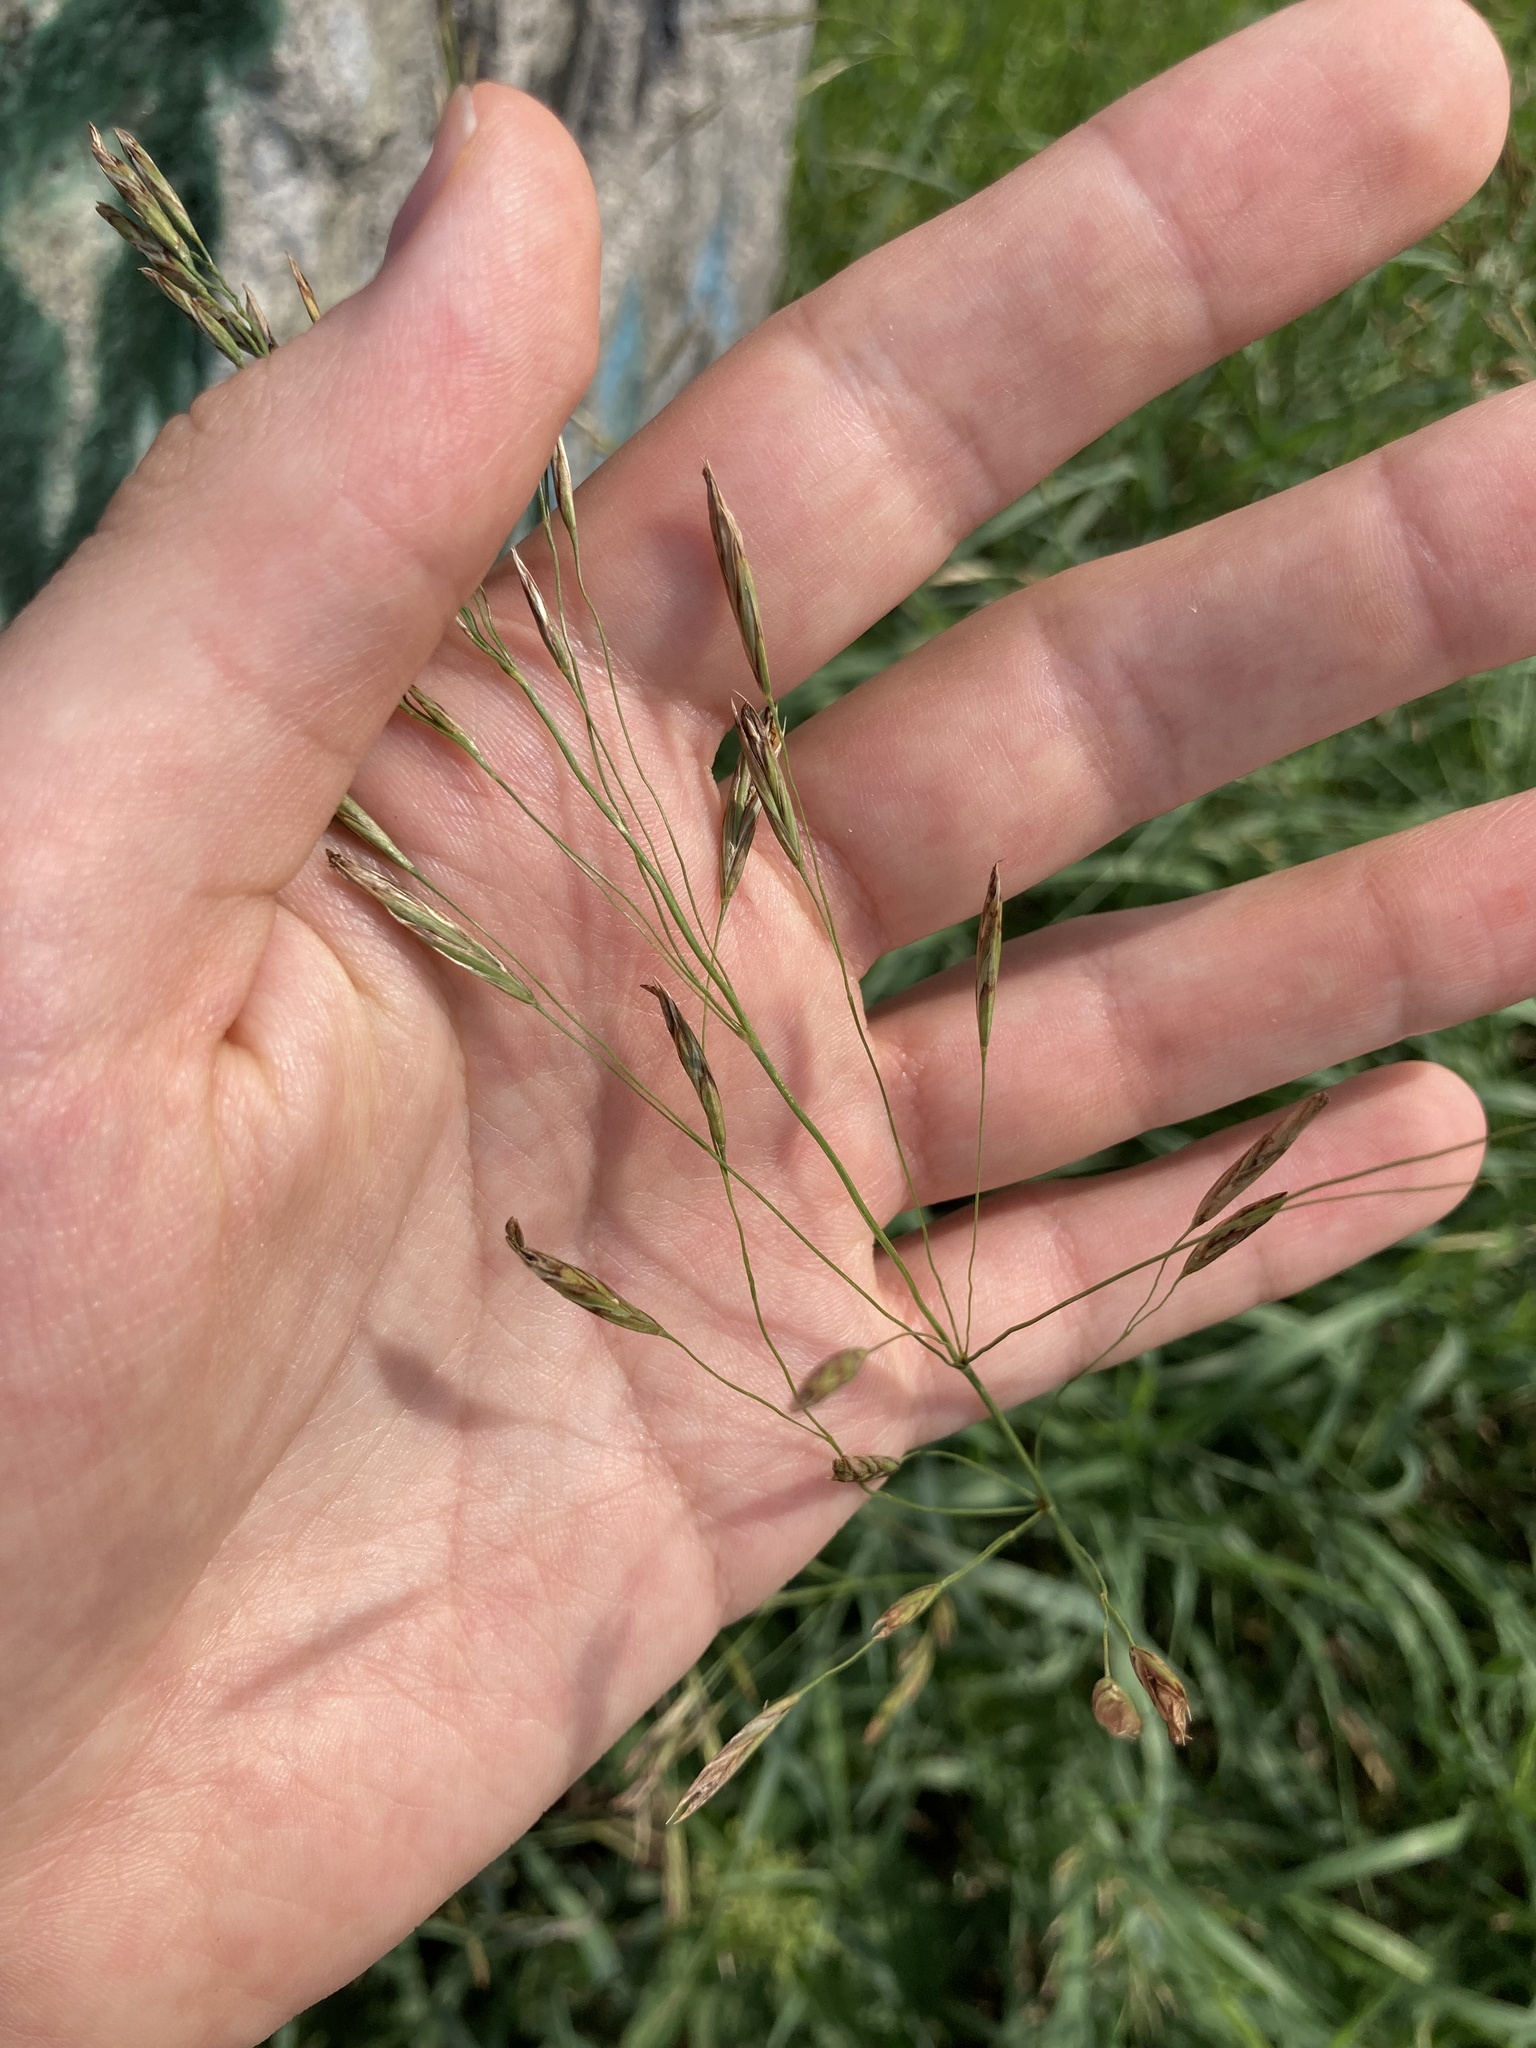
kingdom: Plantae
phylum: Tracheophyta
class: Liliopsida
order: Poales
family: Poaceae
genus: Bromus
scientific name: Bromus inermis
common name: Smooth brome
